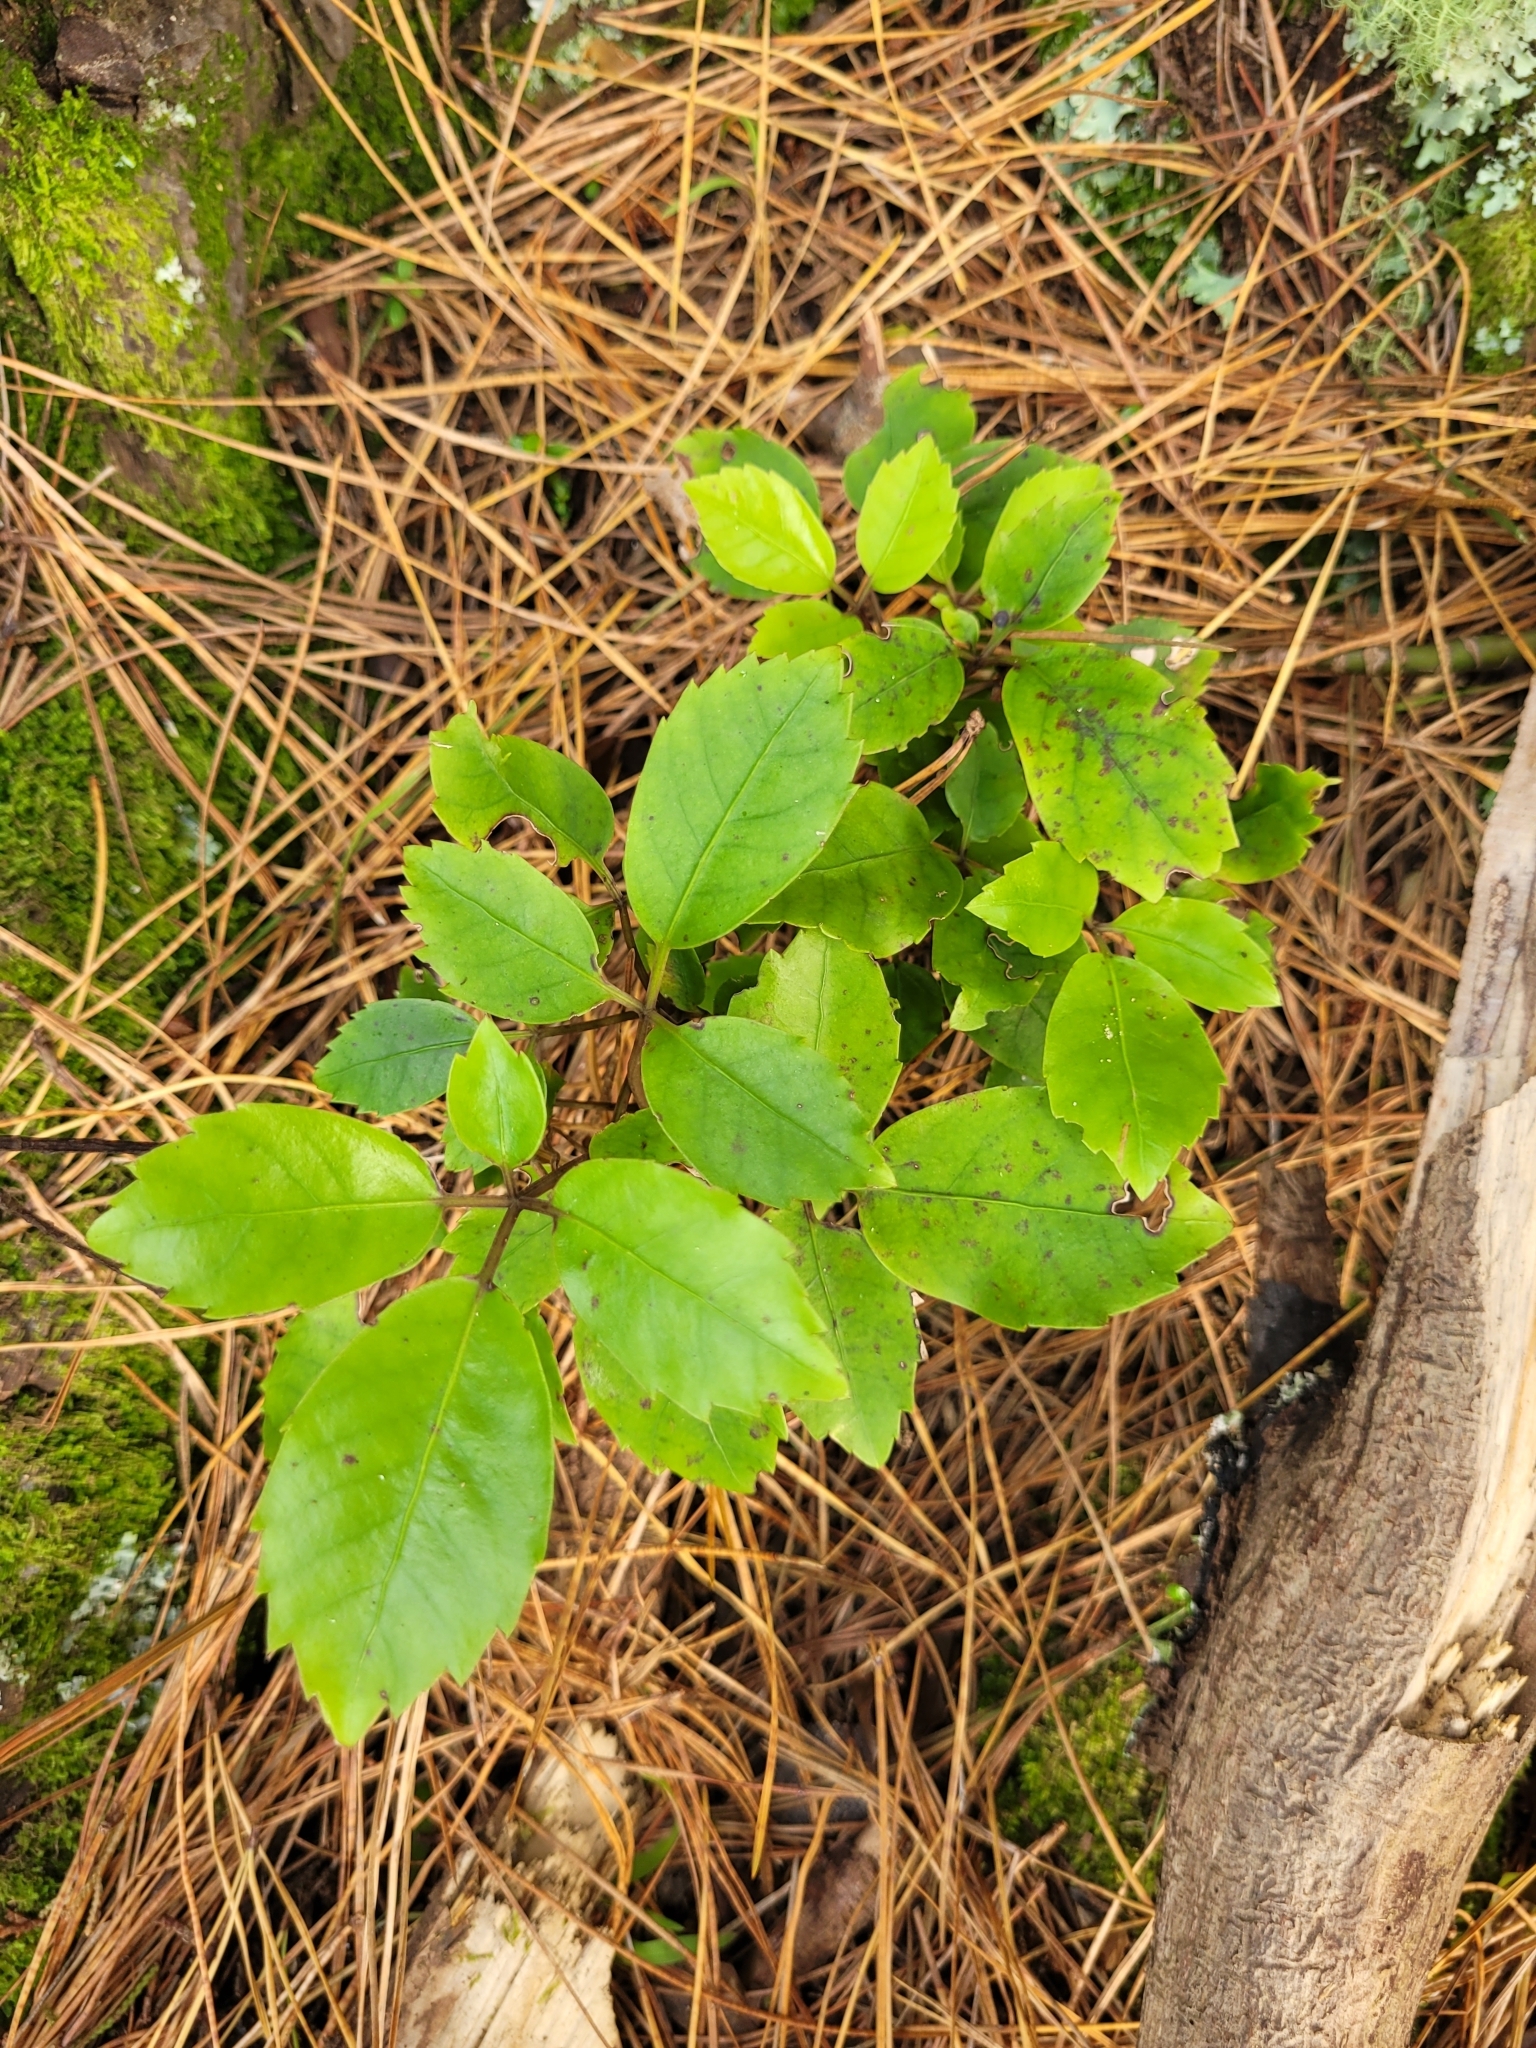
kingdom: Plantae
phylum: Tracheophyta
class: Magnoliopsida
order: Apiales
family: Araliaceae
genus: Neopanax
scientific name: Neopanax arboreus
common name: Five-fingers
